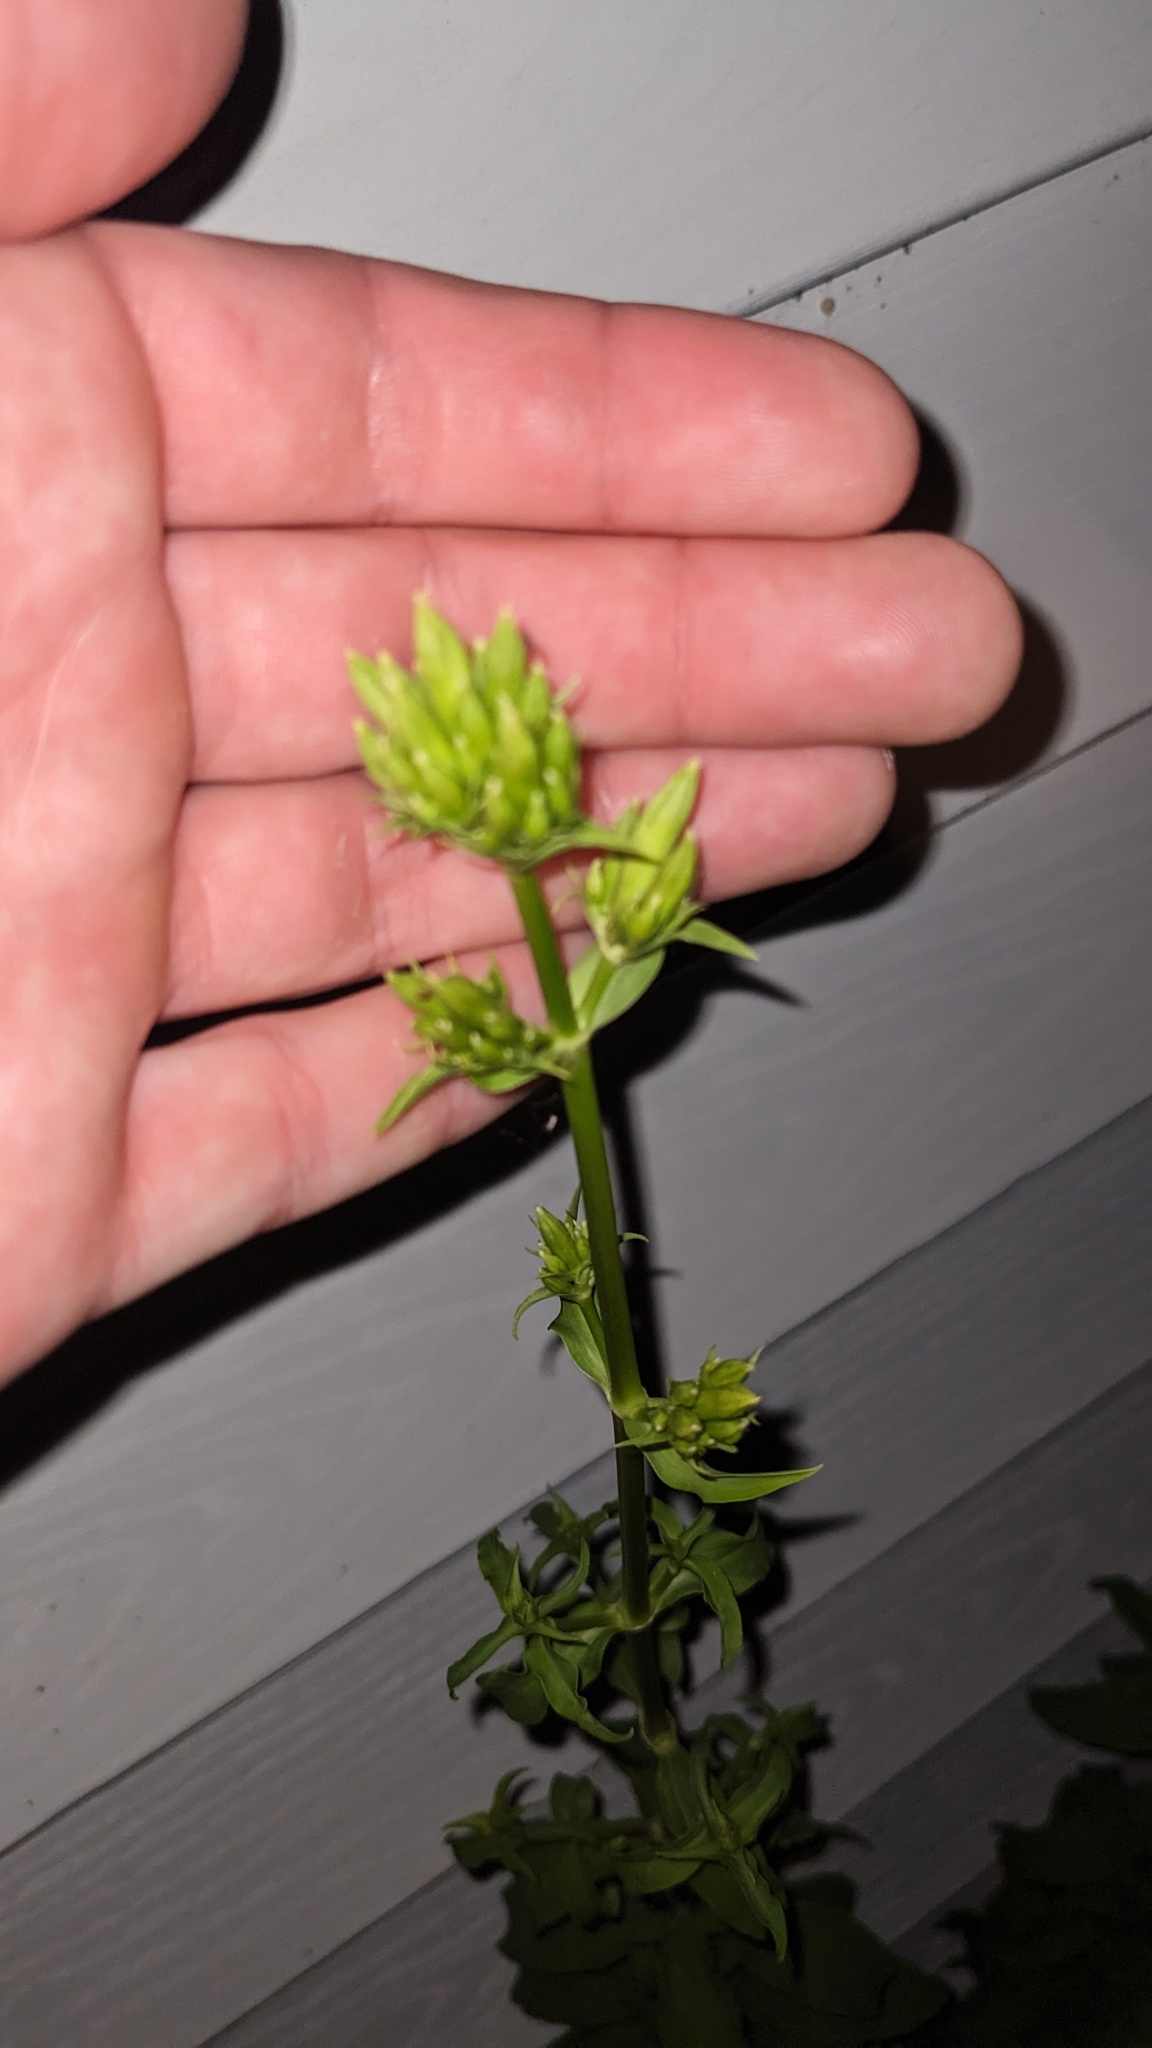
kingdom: Plantae
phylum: Tracheophyta
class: Magnoliopsida
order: Caryophyllales
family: Caryophyllaceae
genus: Saponaria
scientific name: Saponaria officinalis
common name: Soapwort
